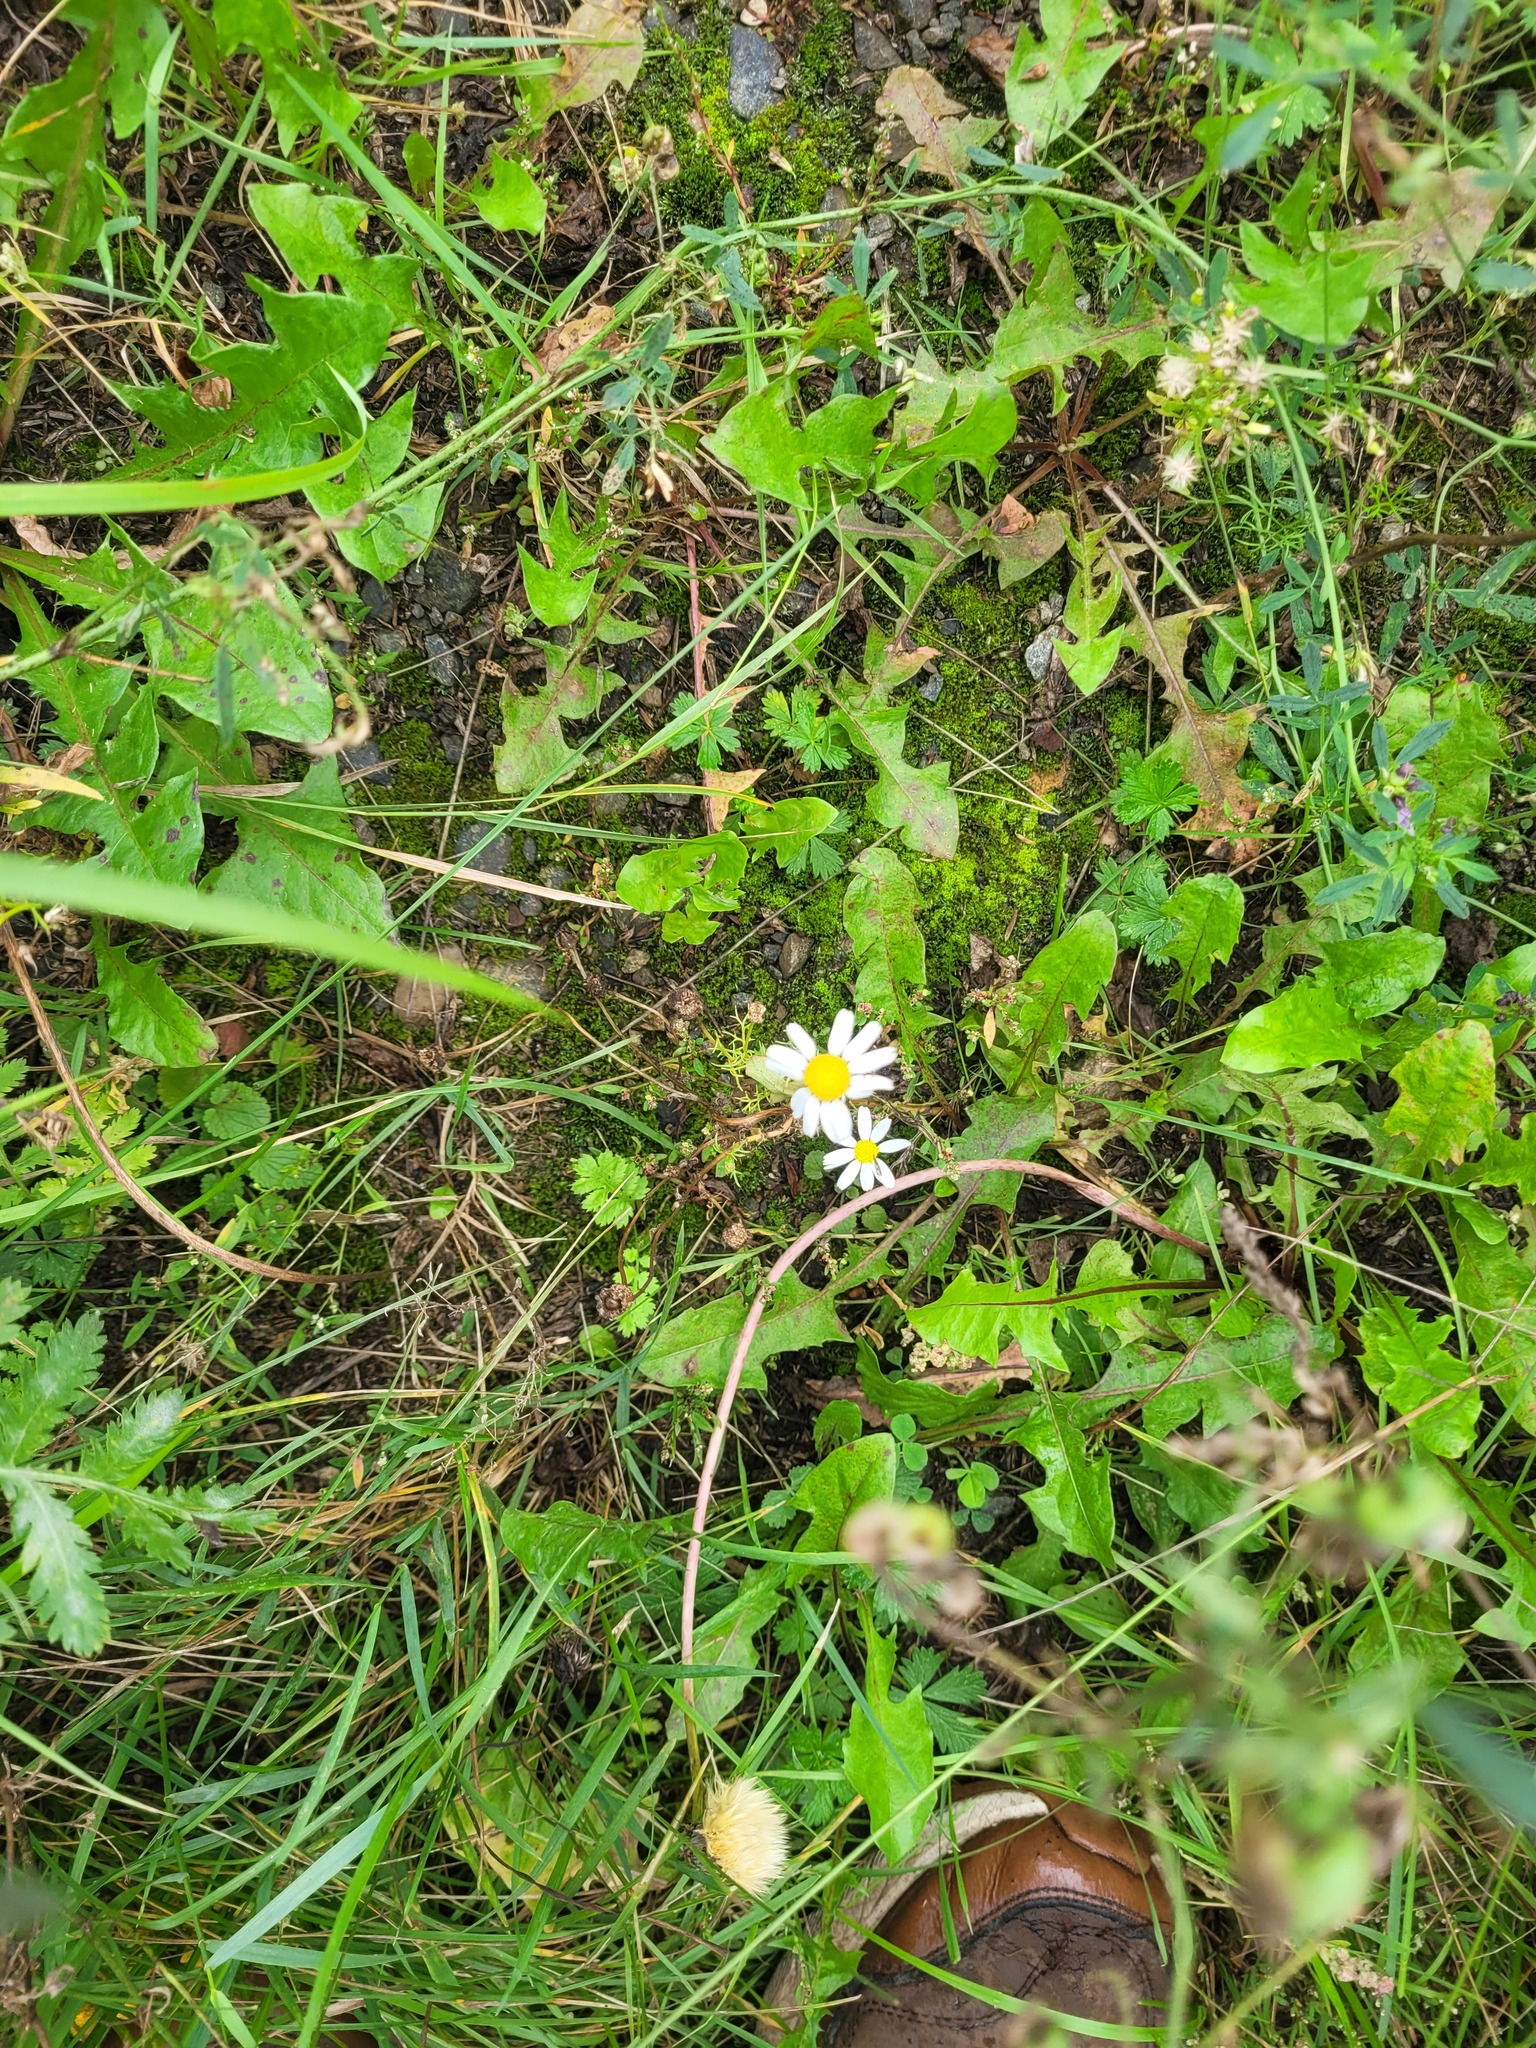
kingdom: Plantae
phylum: Tracheophyta
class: Magnoliopsida
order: Asterales
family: Asteraceae
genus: Tripleurospermum
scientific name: Tripleurospermum inodorum
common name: Scentless mayweed
